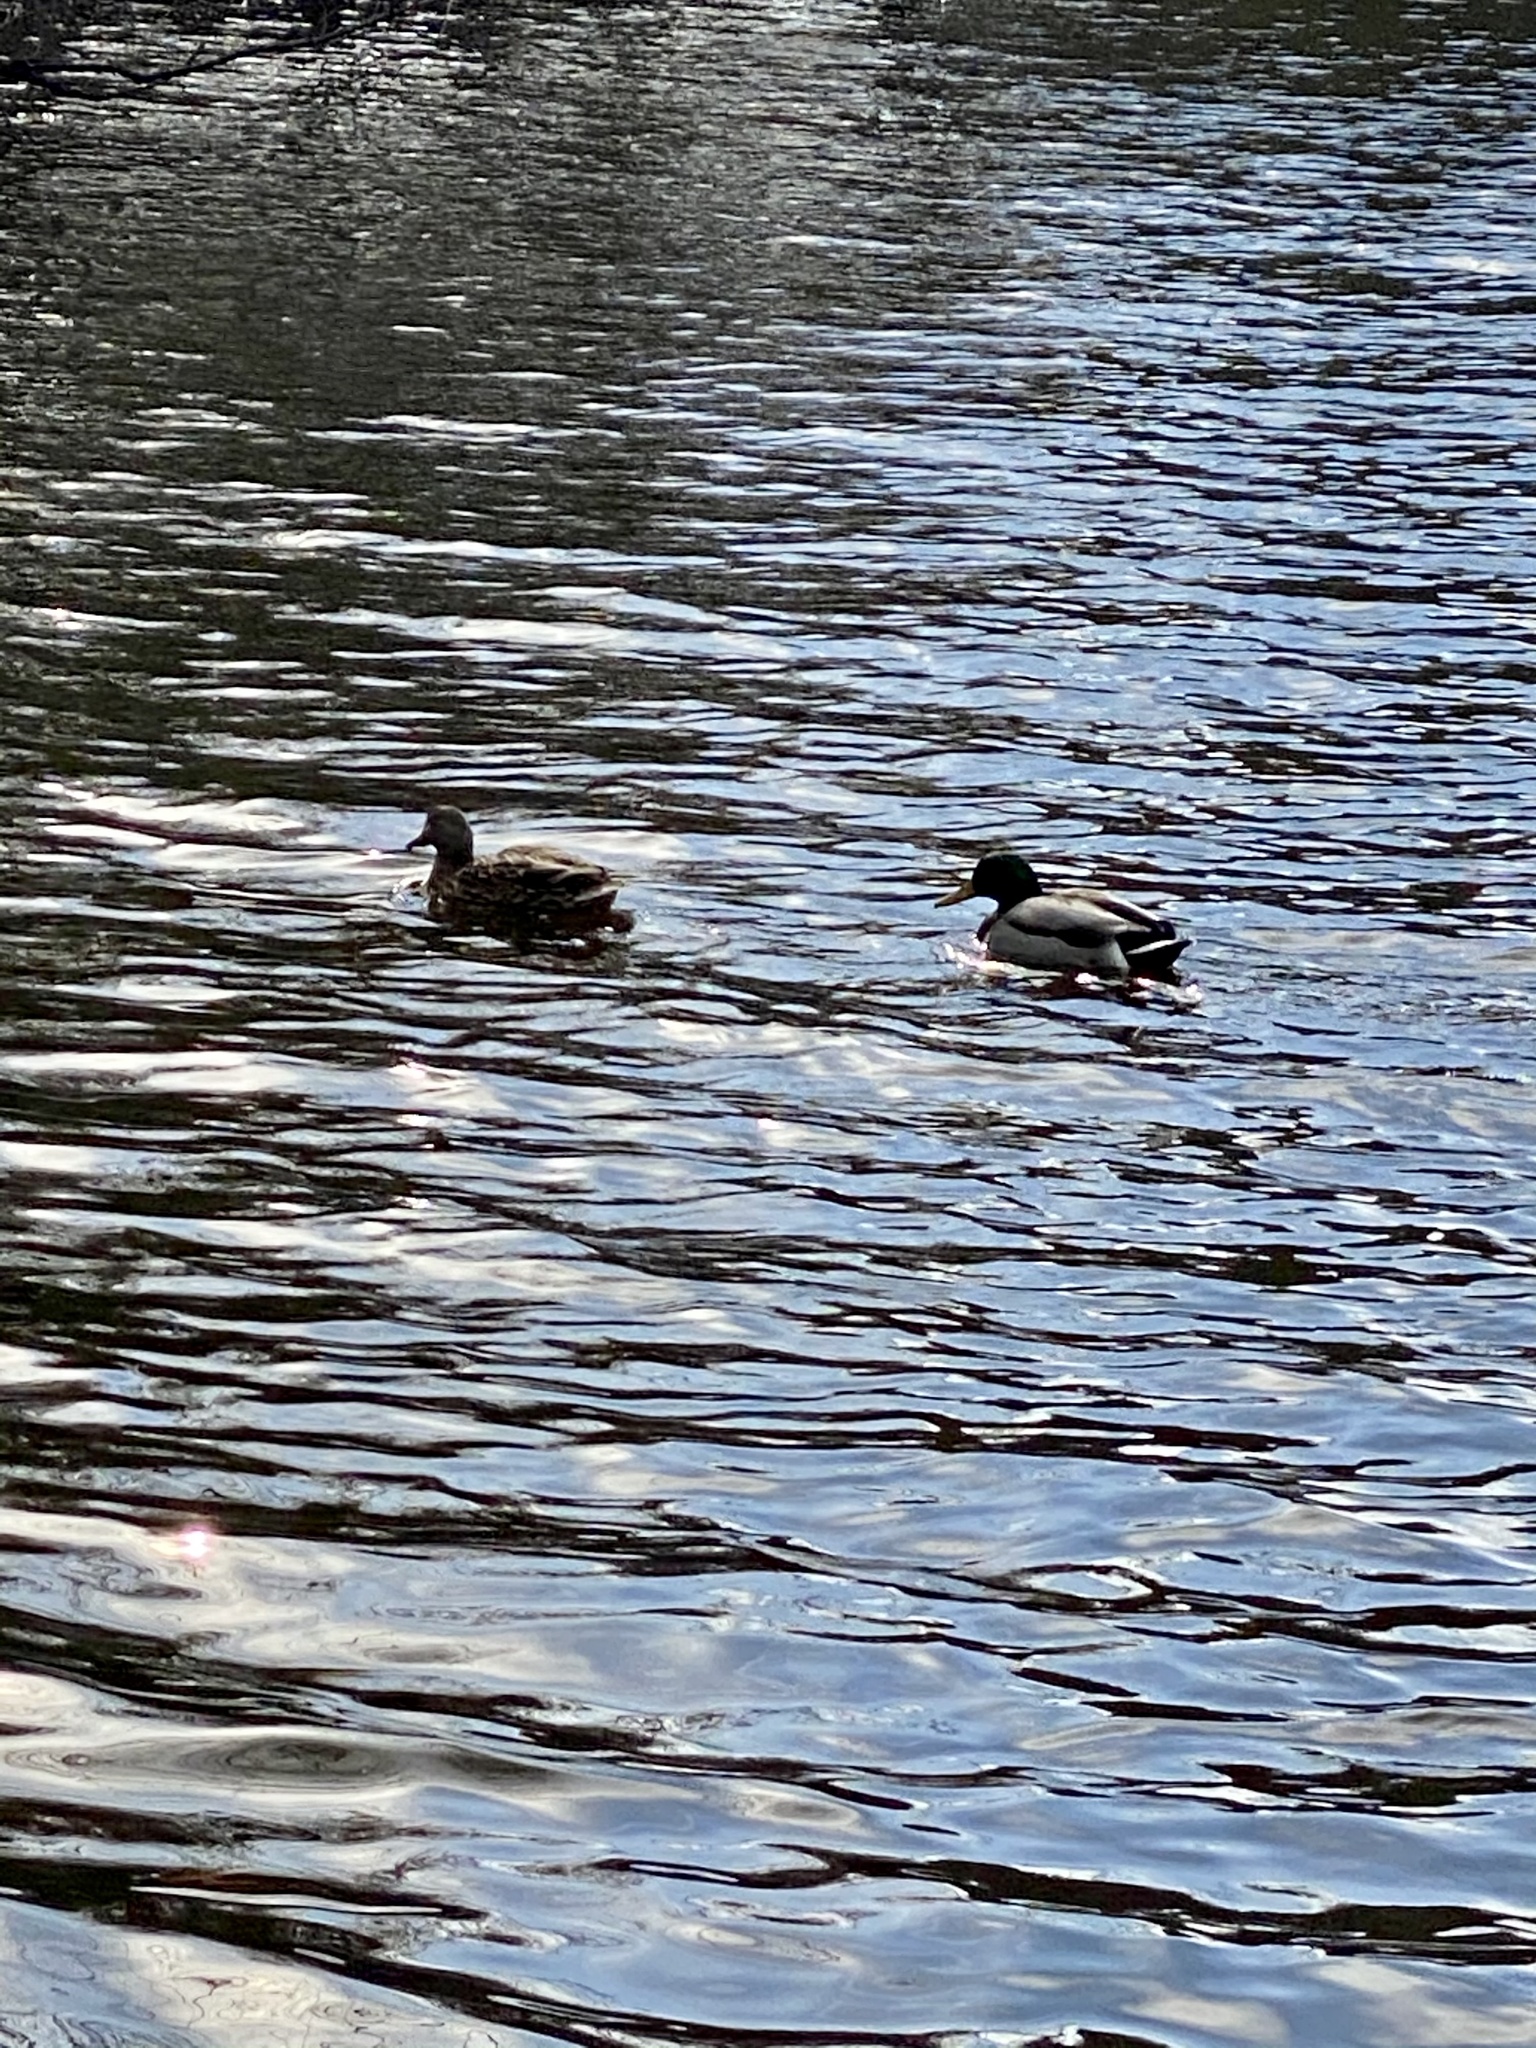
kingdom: Animalia
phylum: Chordata
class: Aves
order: Anseriformes
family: Anatidae
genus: Anas
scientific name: Anas platyrhynchos
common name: Mallard
